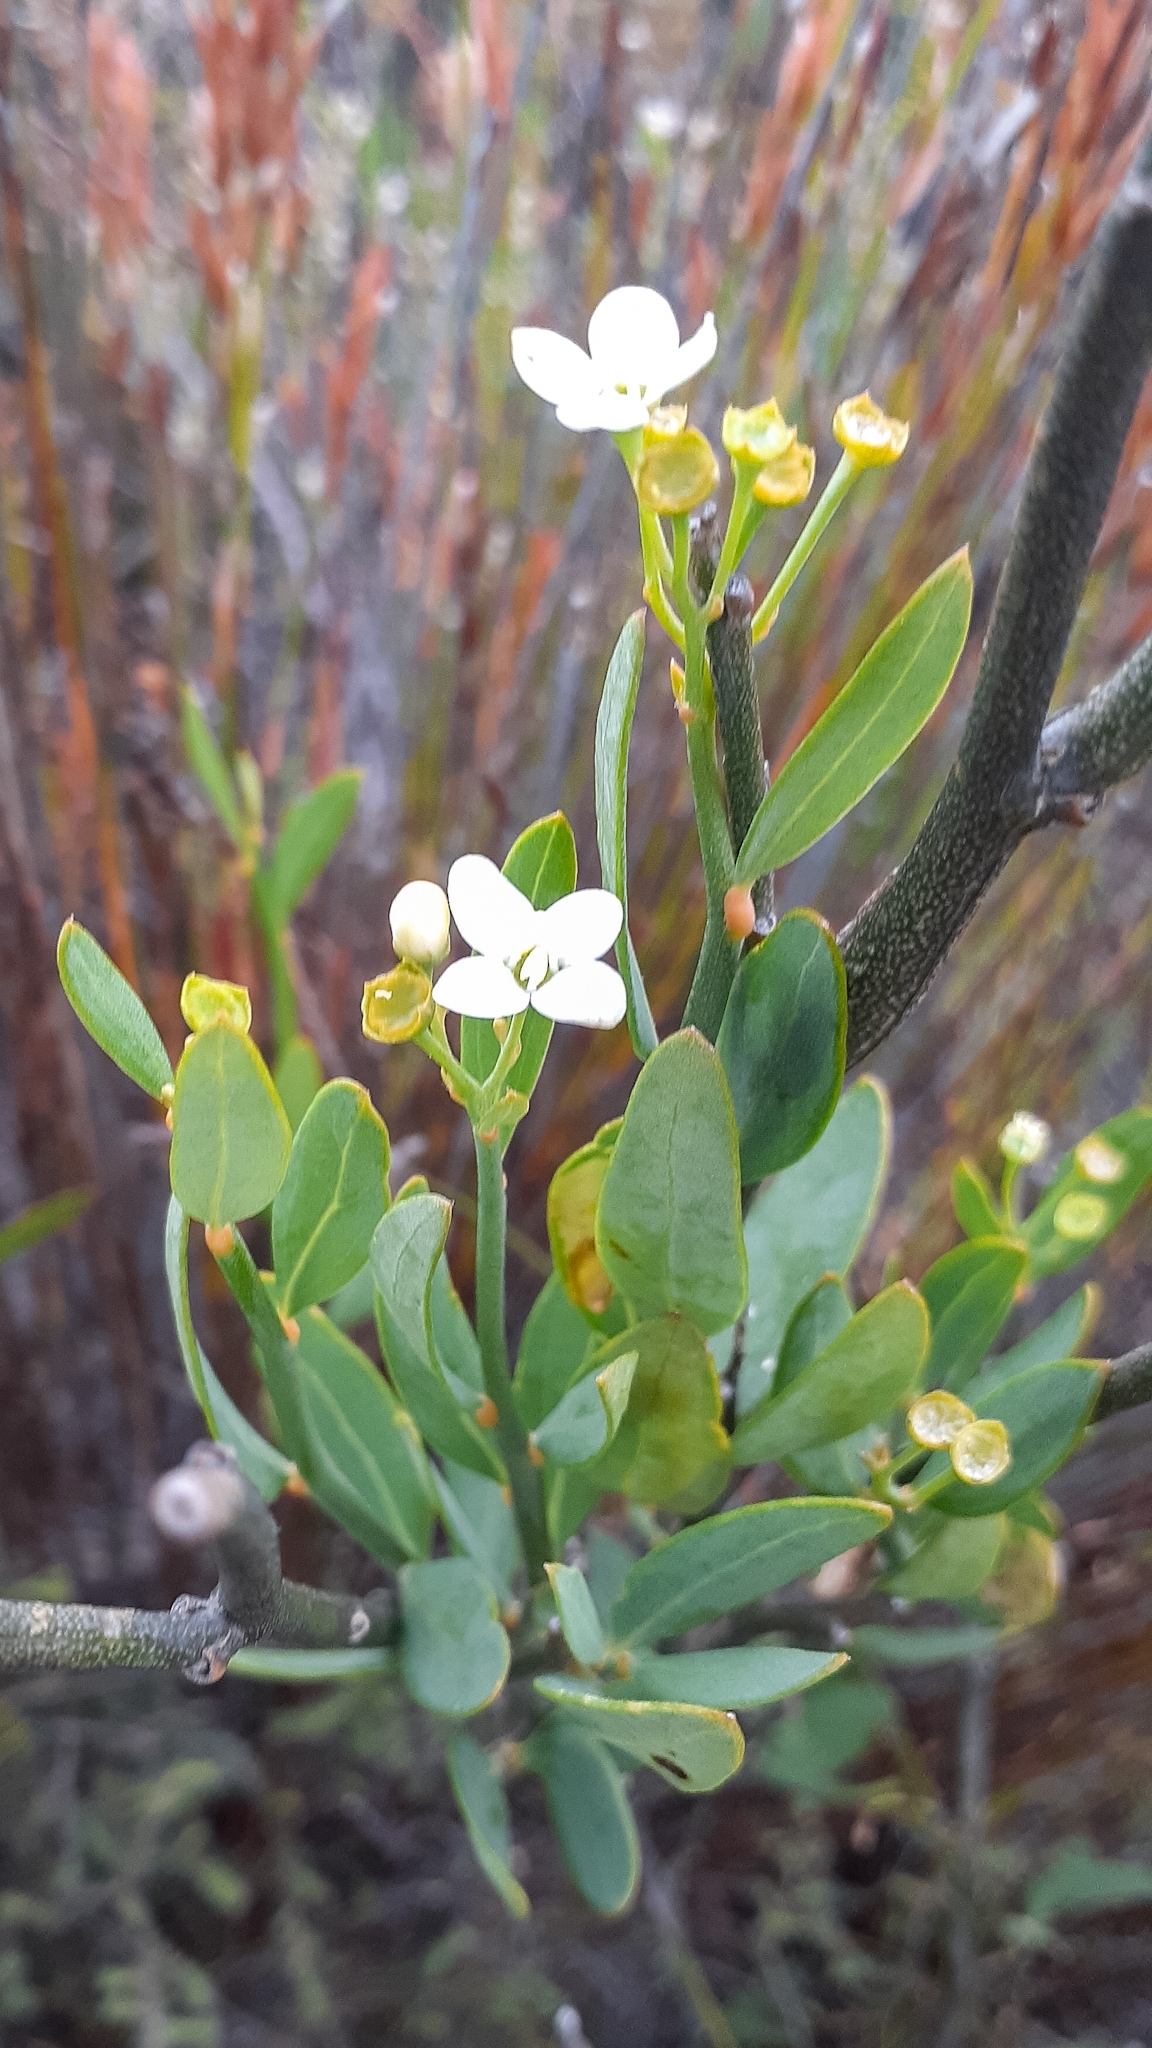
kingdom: Plantae
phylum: Tracheophyta
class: Magnoliopsida
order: Solanales
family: Montiniaceae
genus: Montinia
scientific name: Montinia caryophyllacea
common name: Wild clove-bush
